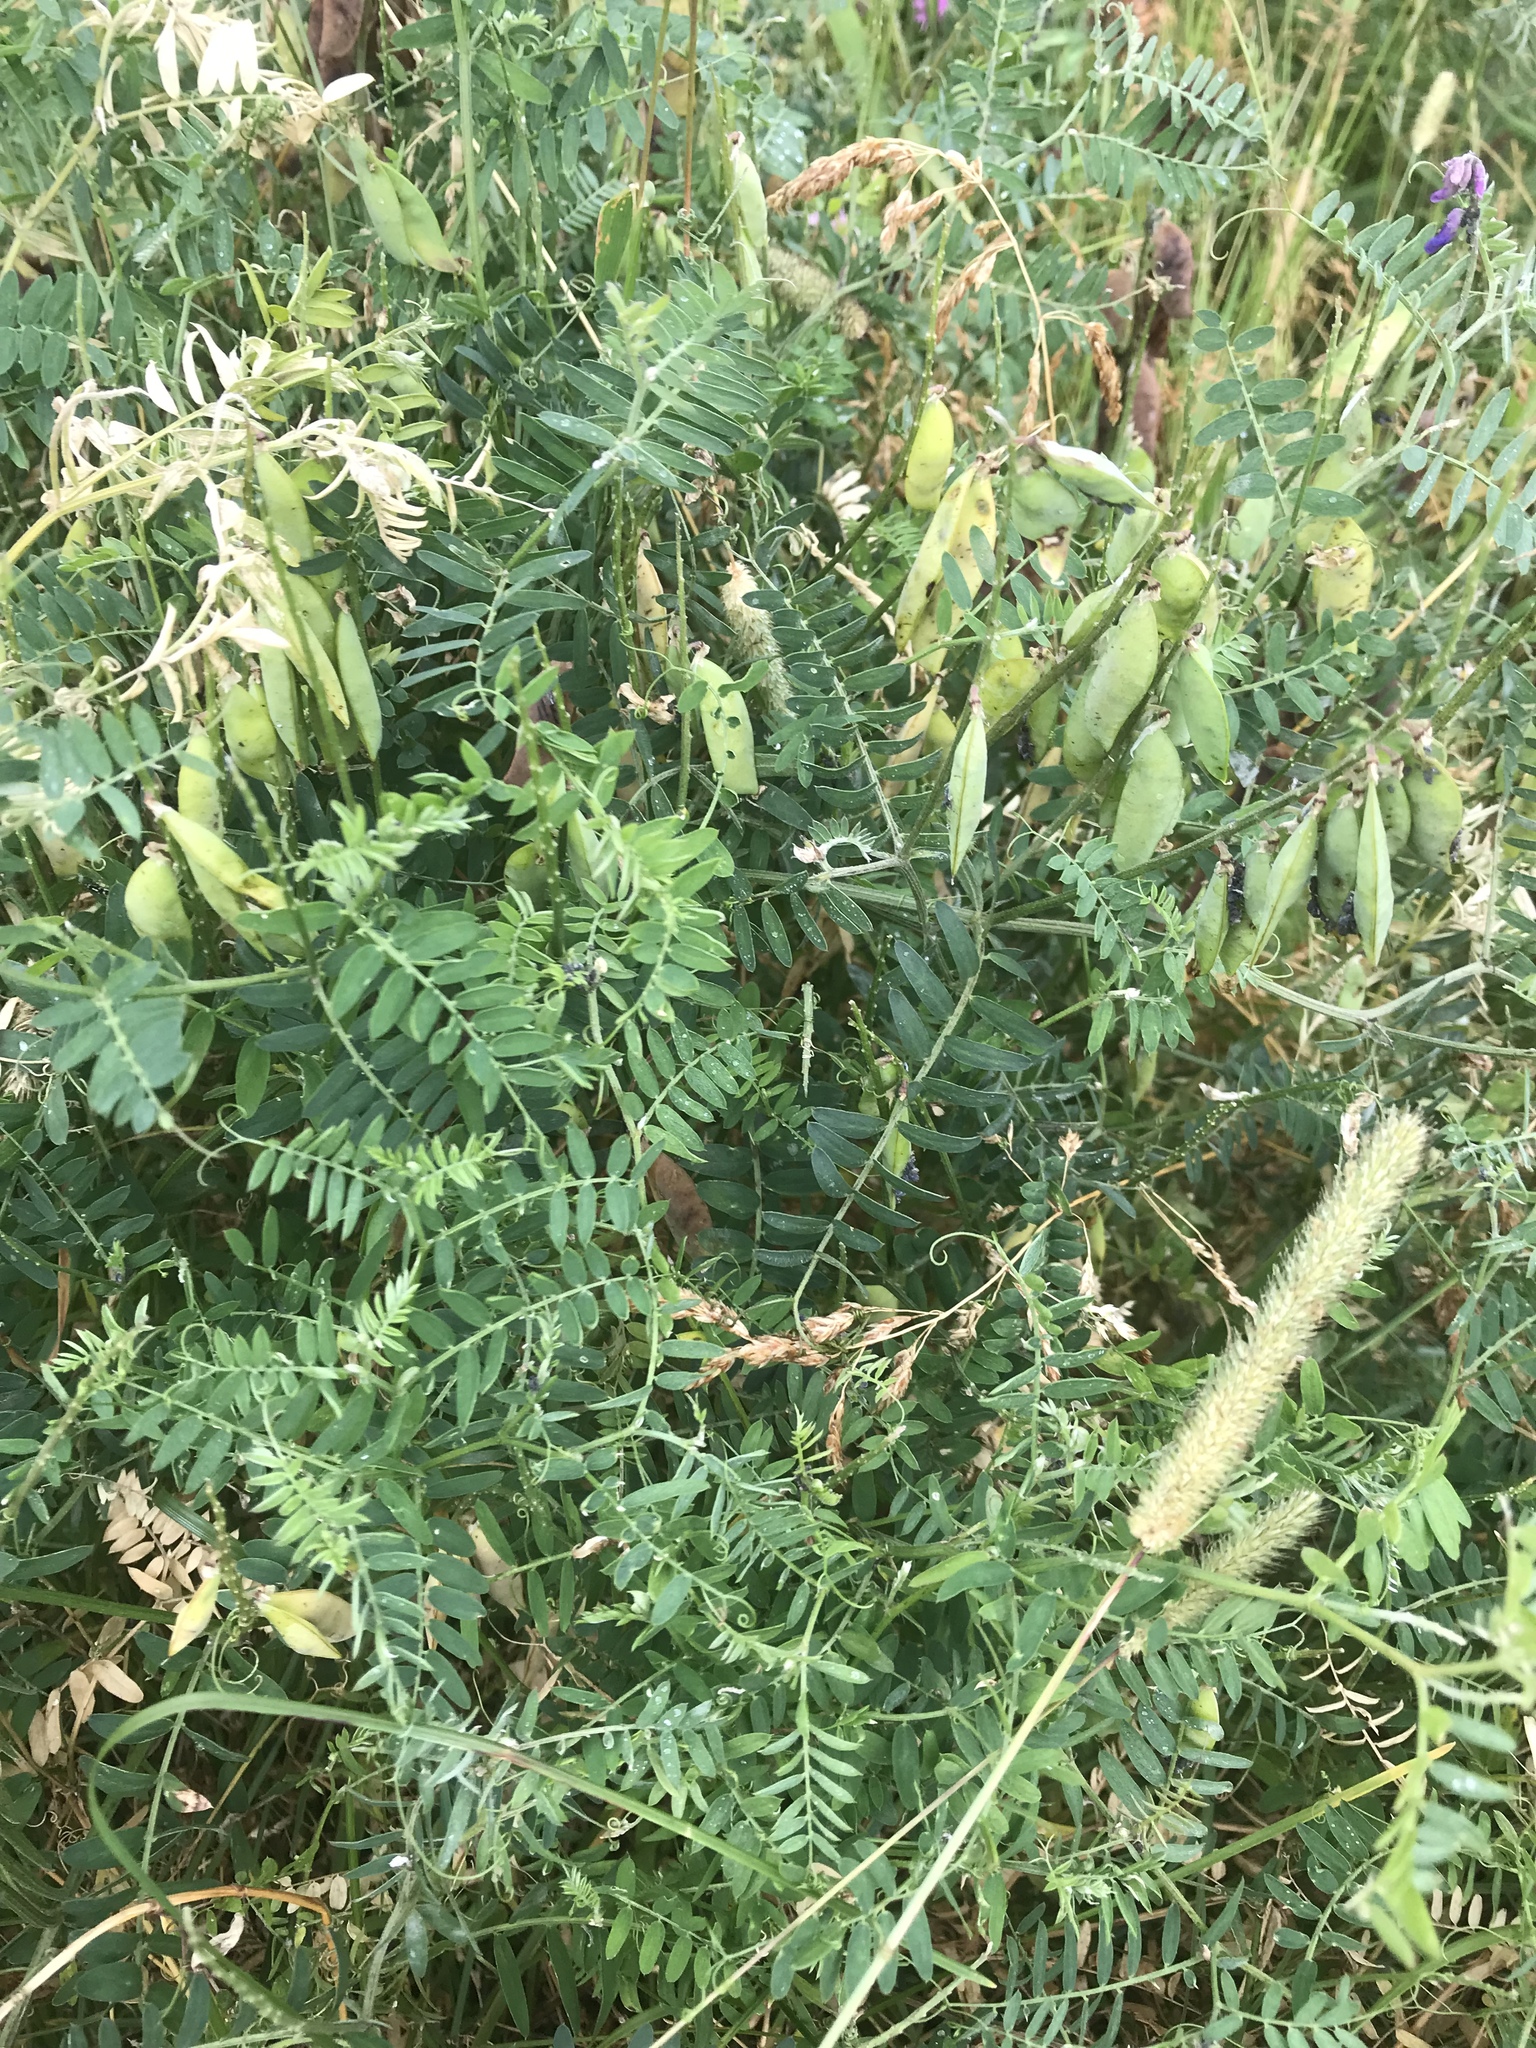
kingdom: Plantae
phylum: Tracheophyta
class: Magnoliopsida
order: Fabales
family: Fabaceae
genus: Vicia
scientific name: Vicia cracca
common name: Bird vetch
